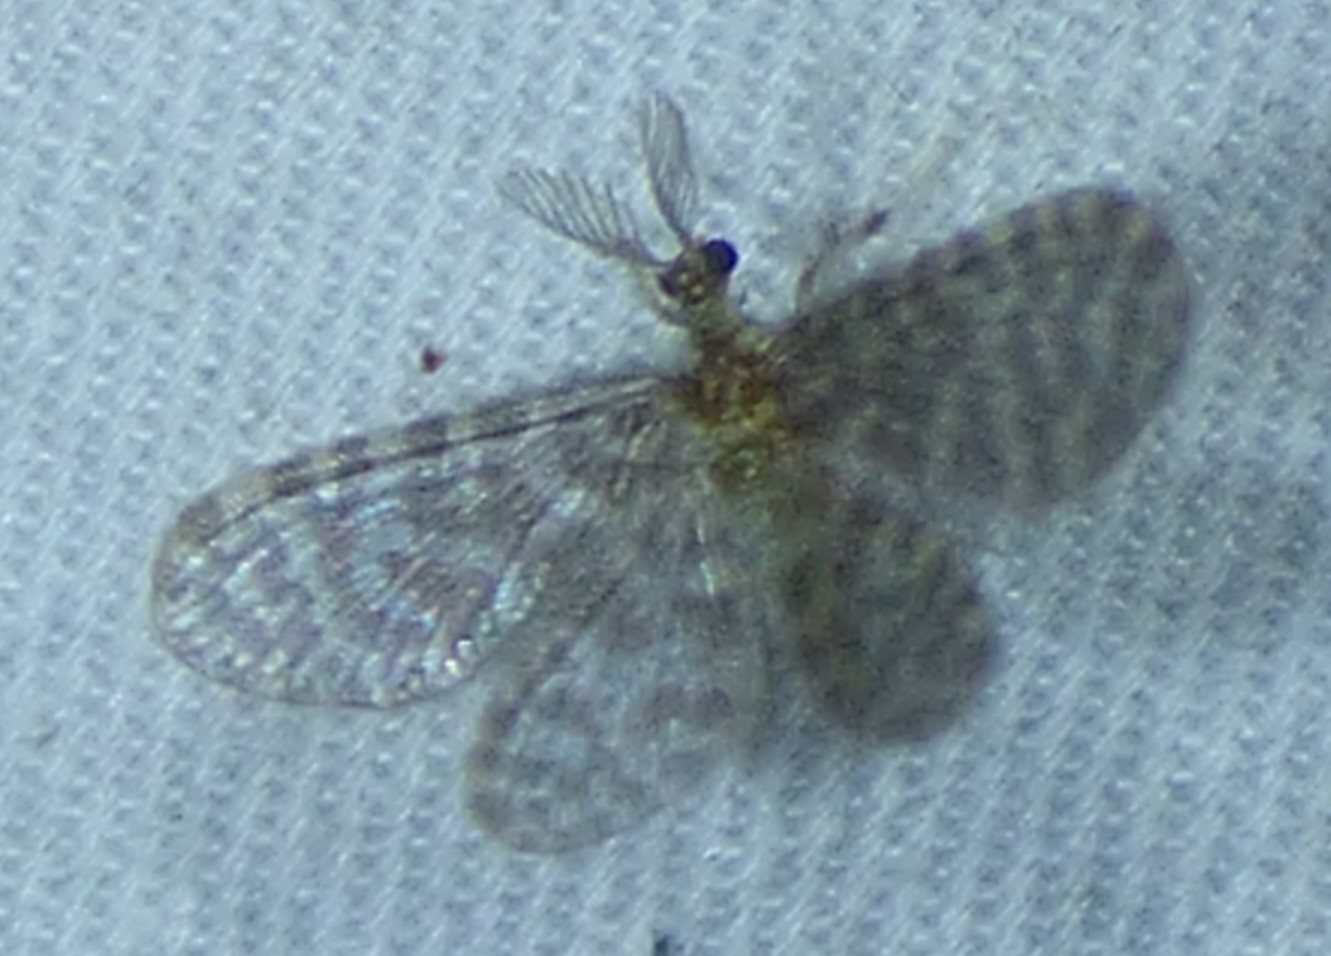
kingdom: Animalia
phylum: Arthropoda
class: Insecta
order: Neuroptera
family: Dilaridae
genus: Nallachius
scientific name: Nallachius americanus
